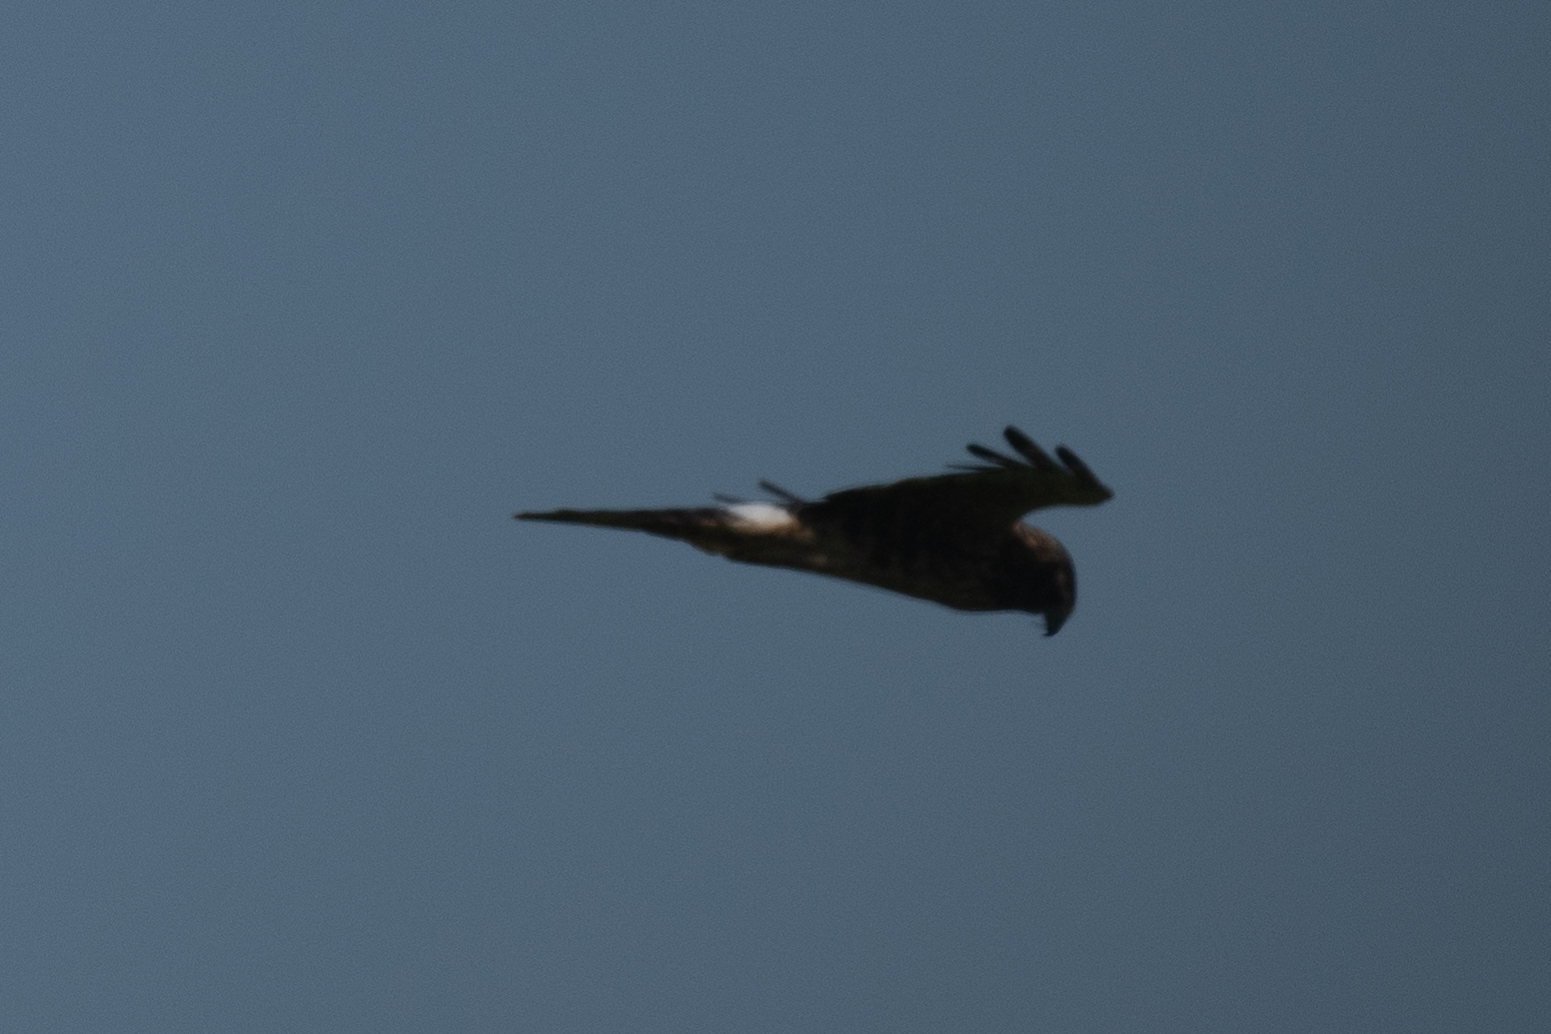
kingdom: Animalia
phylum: Chordata
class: Aves
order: Accipitriformes
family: Accipitridae
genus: Circus
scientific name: Circus cyaneus
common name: Hen harrier
